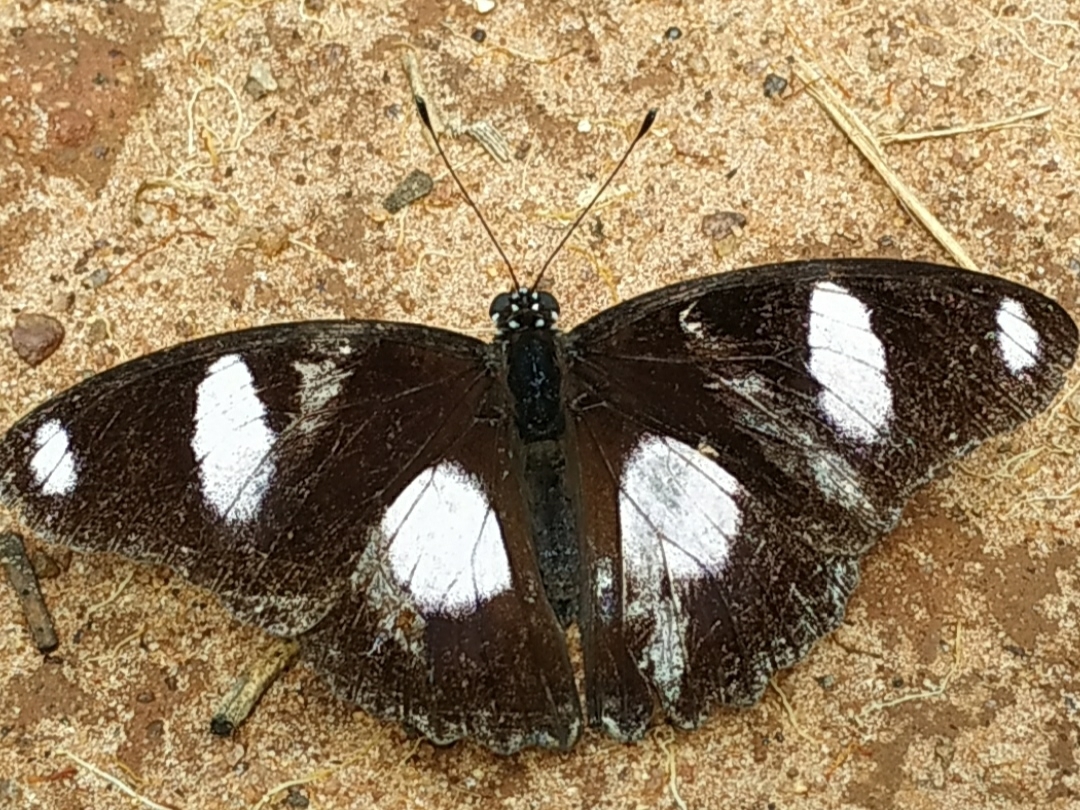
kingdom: Animalia
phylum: Arthropoda
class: Insecta
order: Lepidoptera
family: Nymphalidae
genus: Hypolimnas
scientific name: Hypolimnas misippus
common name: False plain tiger
